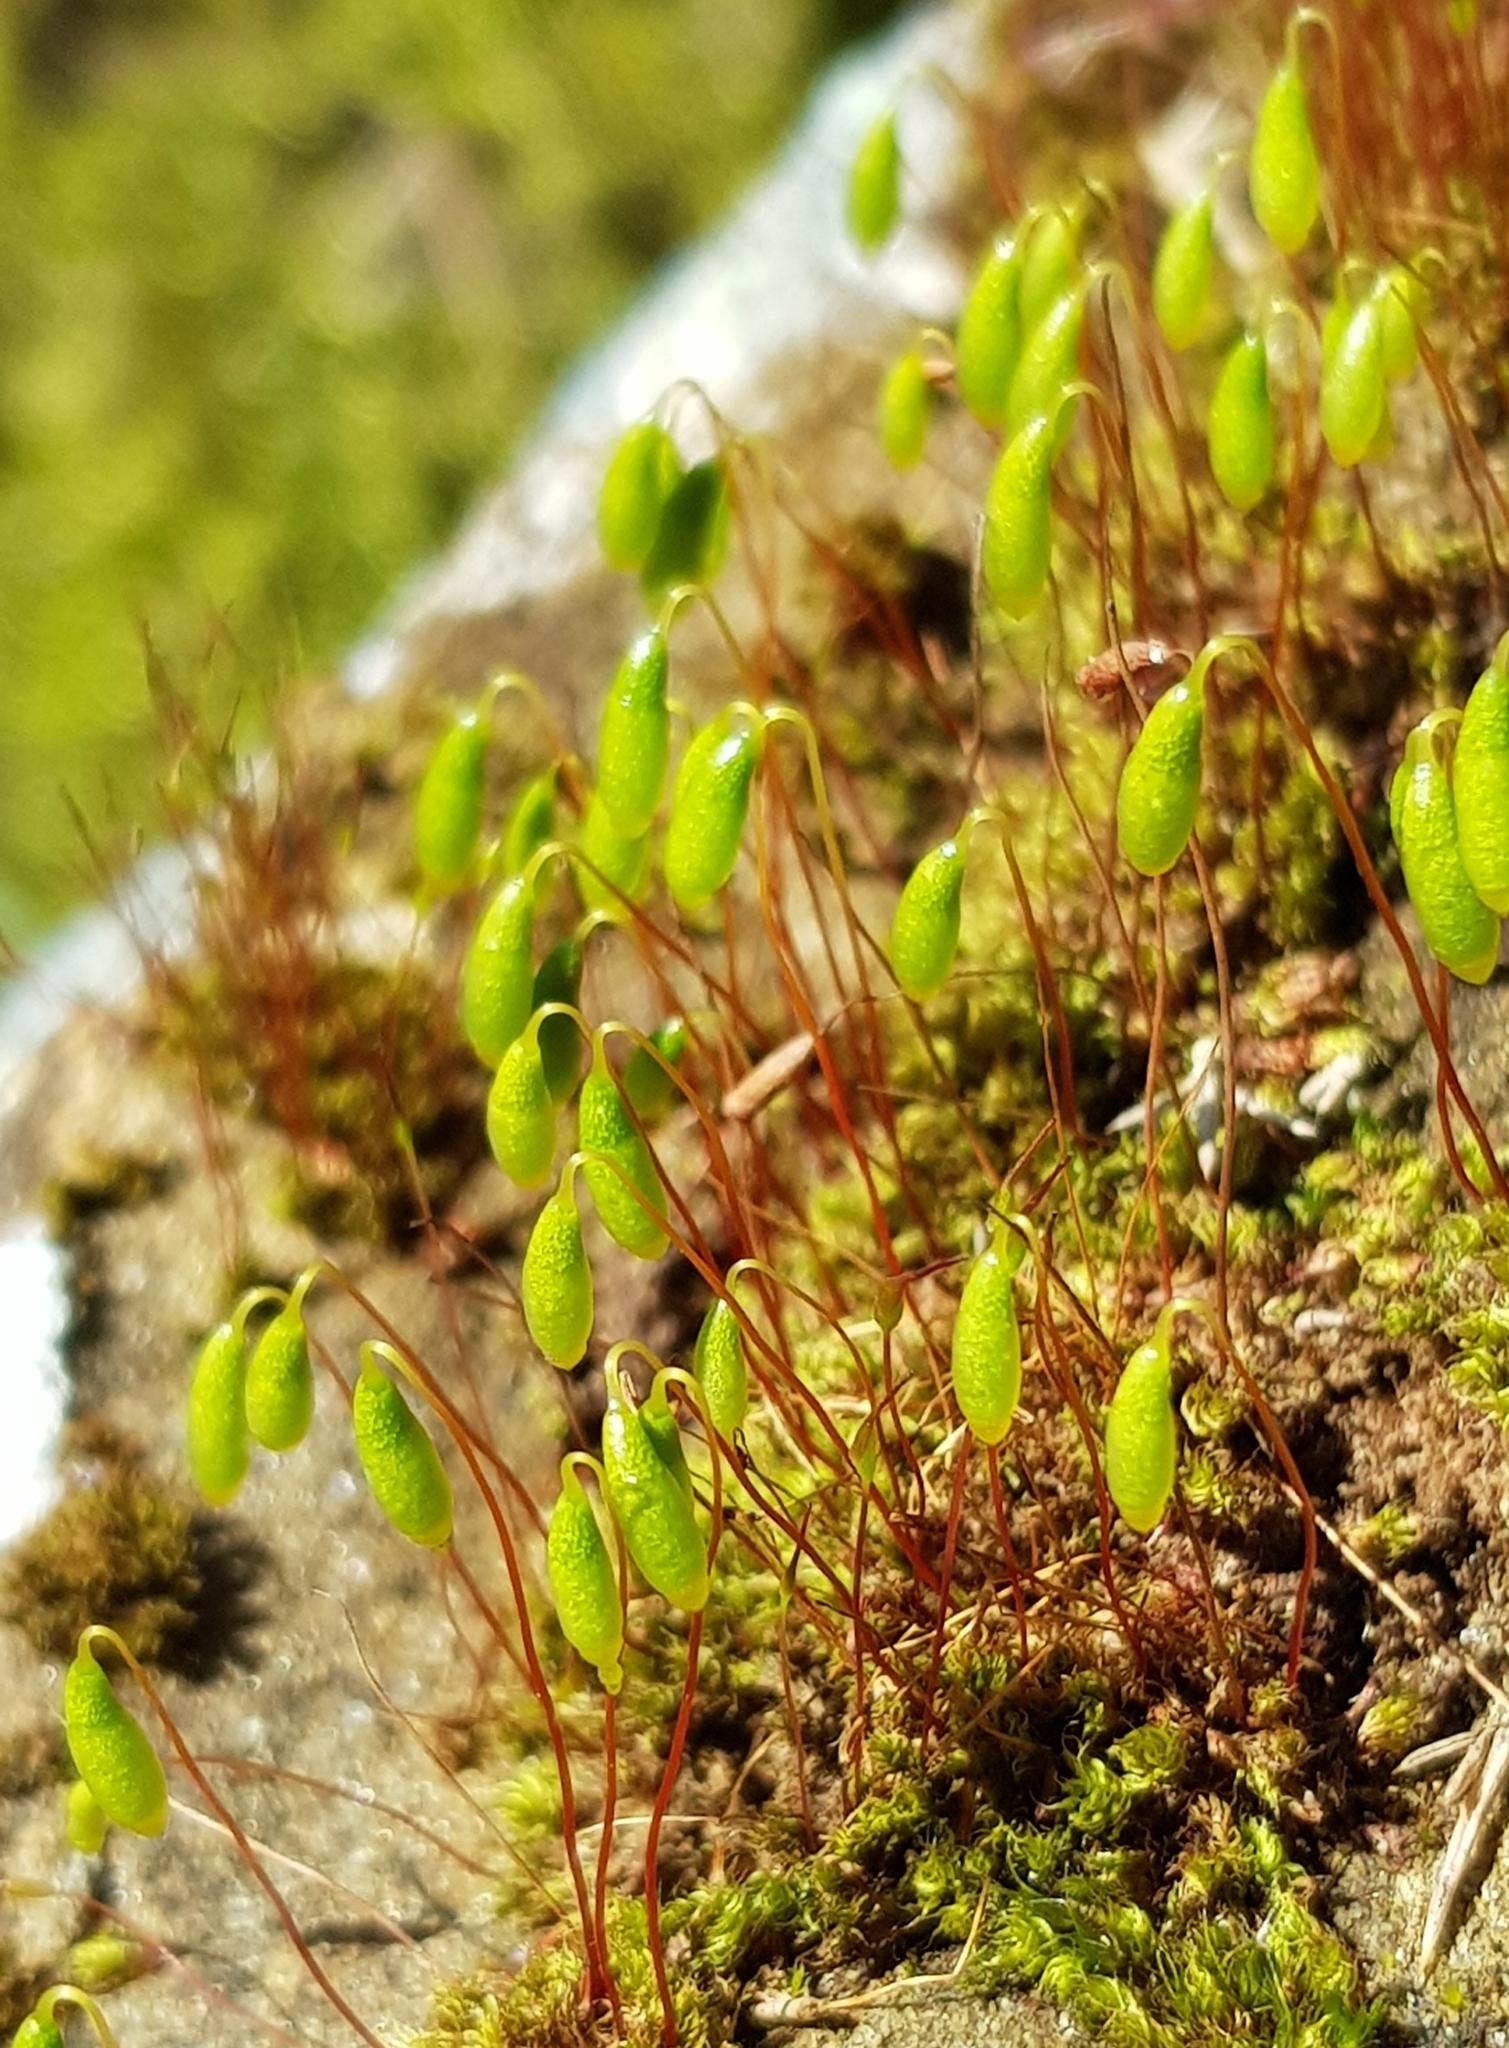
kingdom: Plantae
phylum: Bryophyta
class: Bryopsida
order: Bryales
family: Bryaceae
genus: Rosulabryum
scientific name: Rosulabryum capillare
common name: Capillary thread-moss
